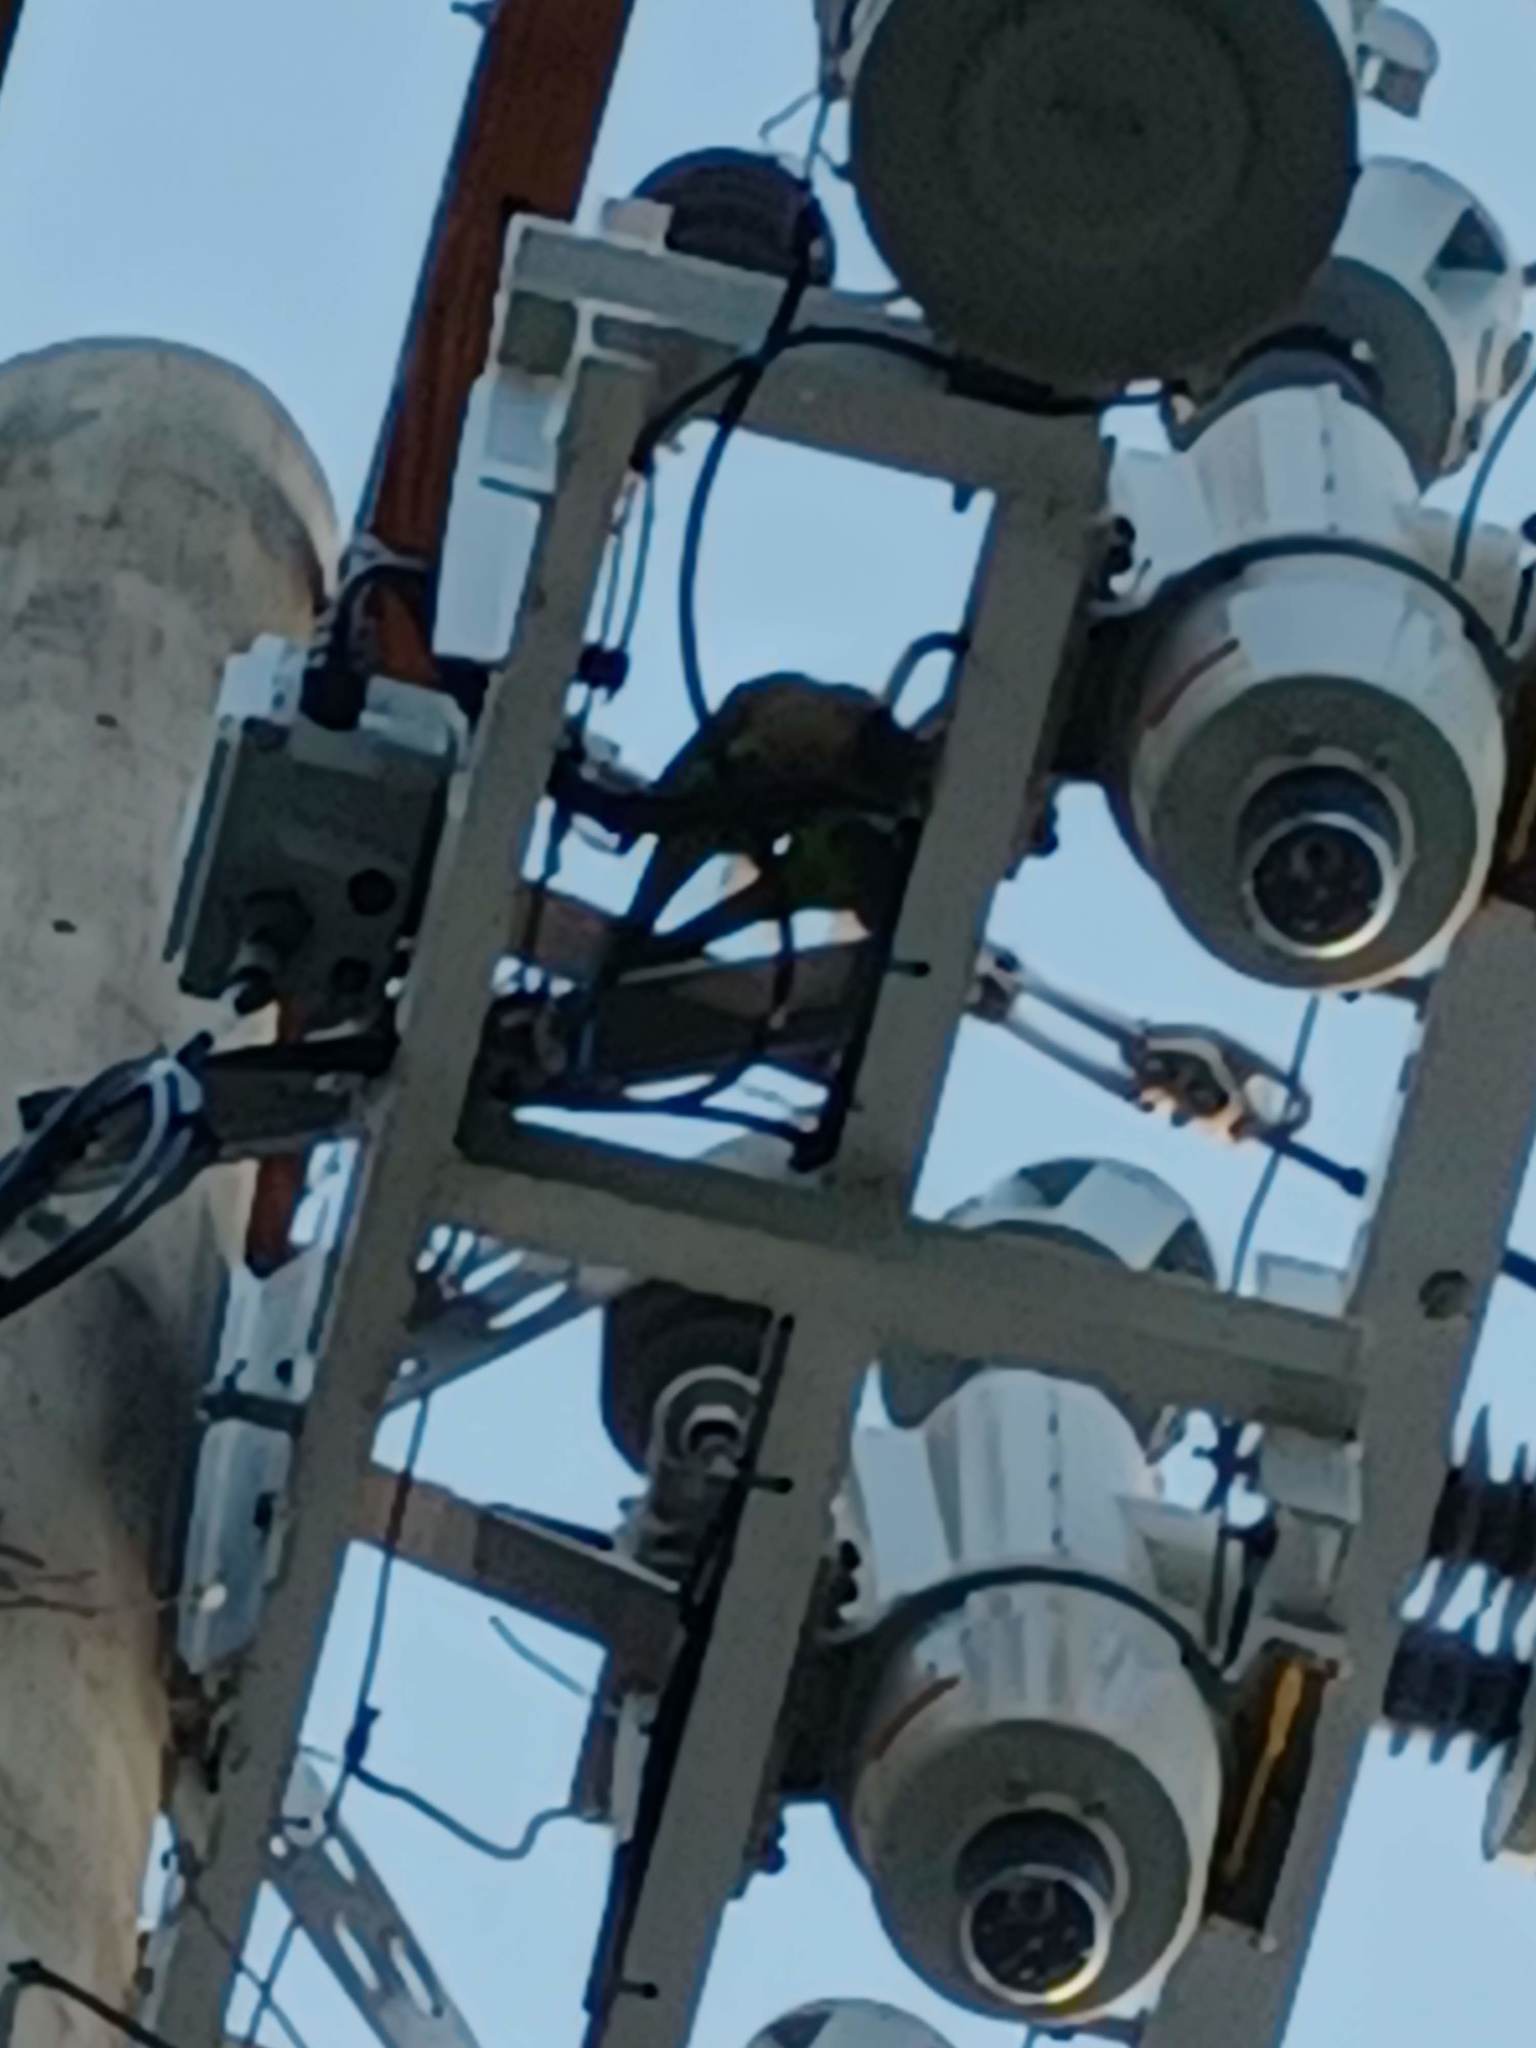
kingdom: Animalia
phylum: Chordata
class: Aves
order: Psittaciformes
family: Psittacidae
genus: Myiopsitta
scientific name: Myiopsitta monachus
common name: Monk parakeet
